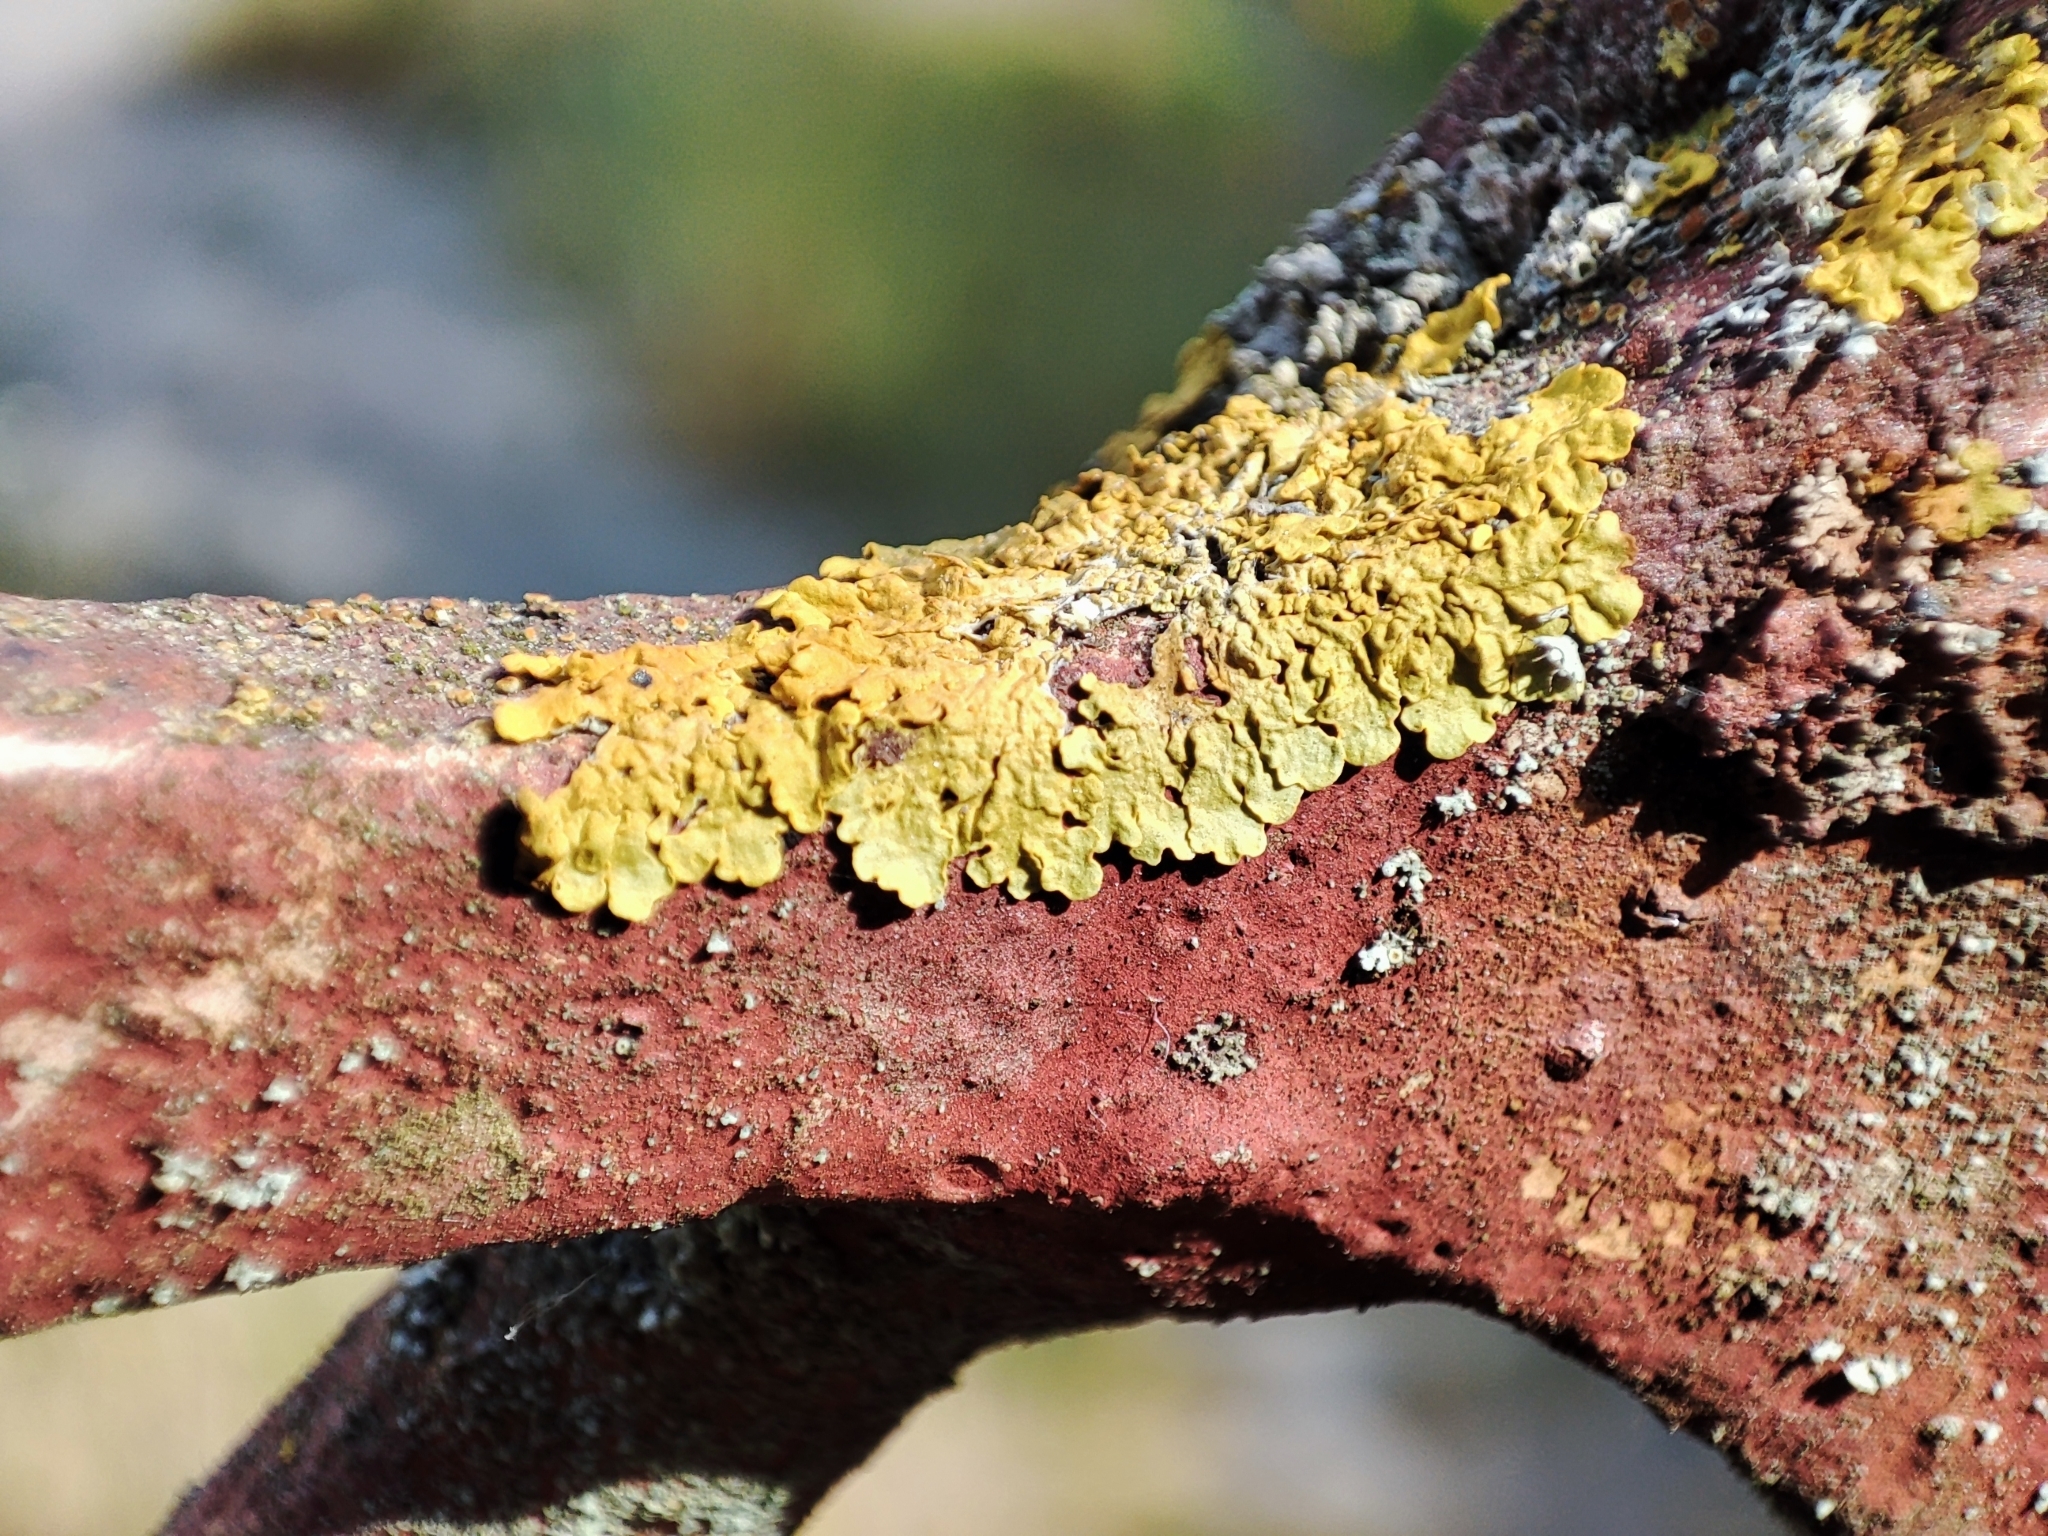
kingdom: Fungi
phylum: Ascomycota
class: Lecanoromycetes
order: Teloschistales
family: Teloschistaceae
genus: Xanthoria
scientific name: Xanthoria parietina
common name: Common orange lichen
